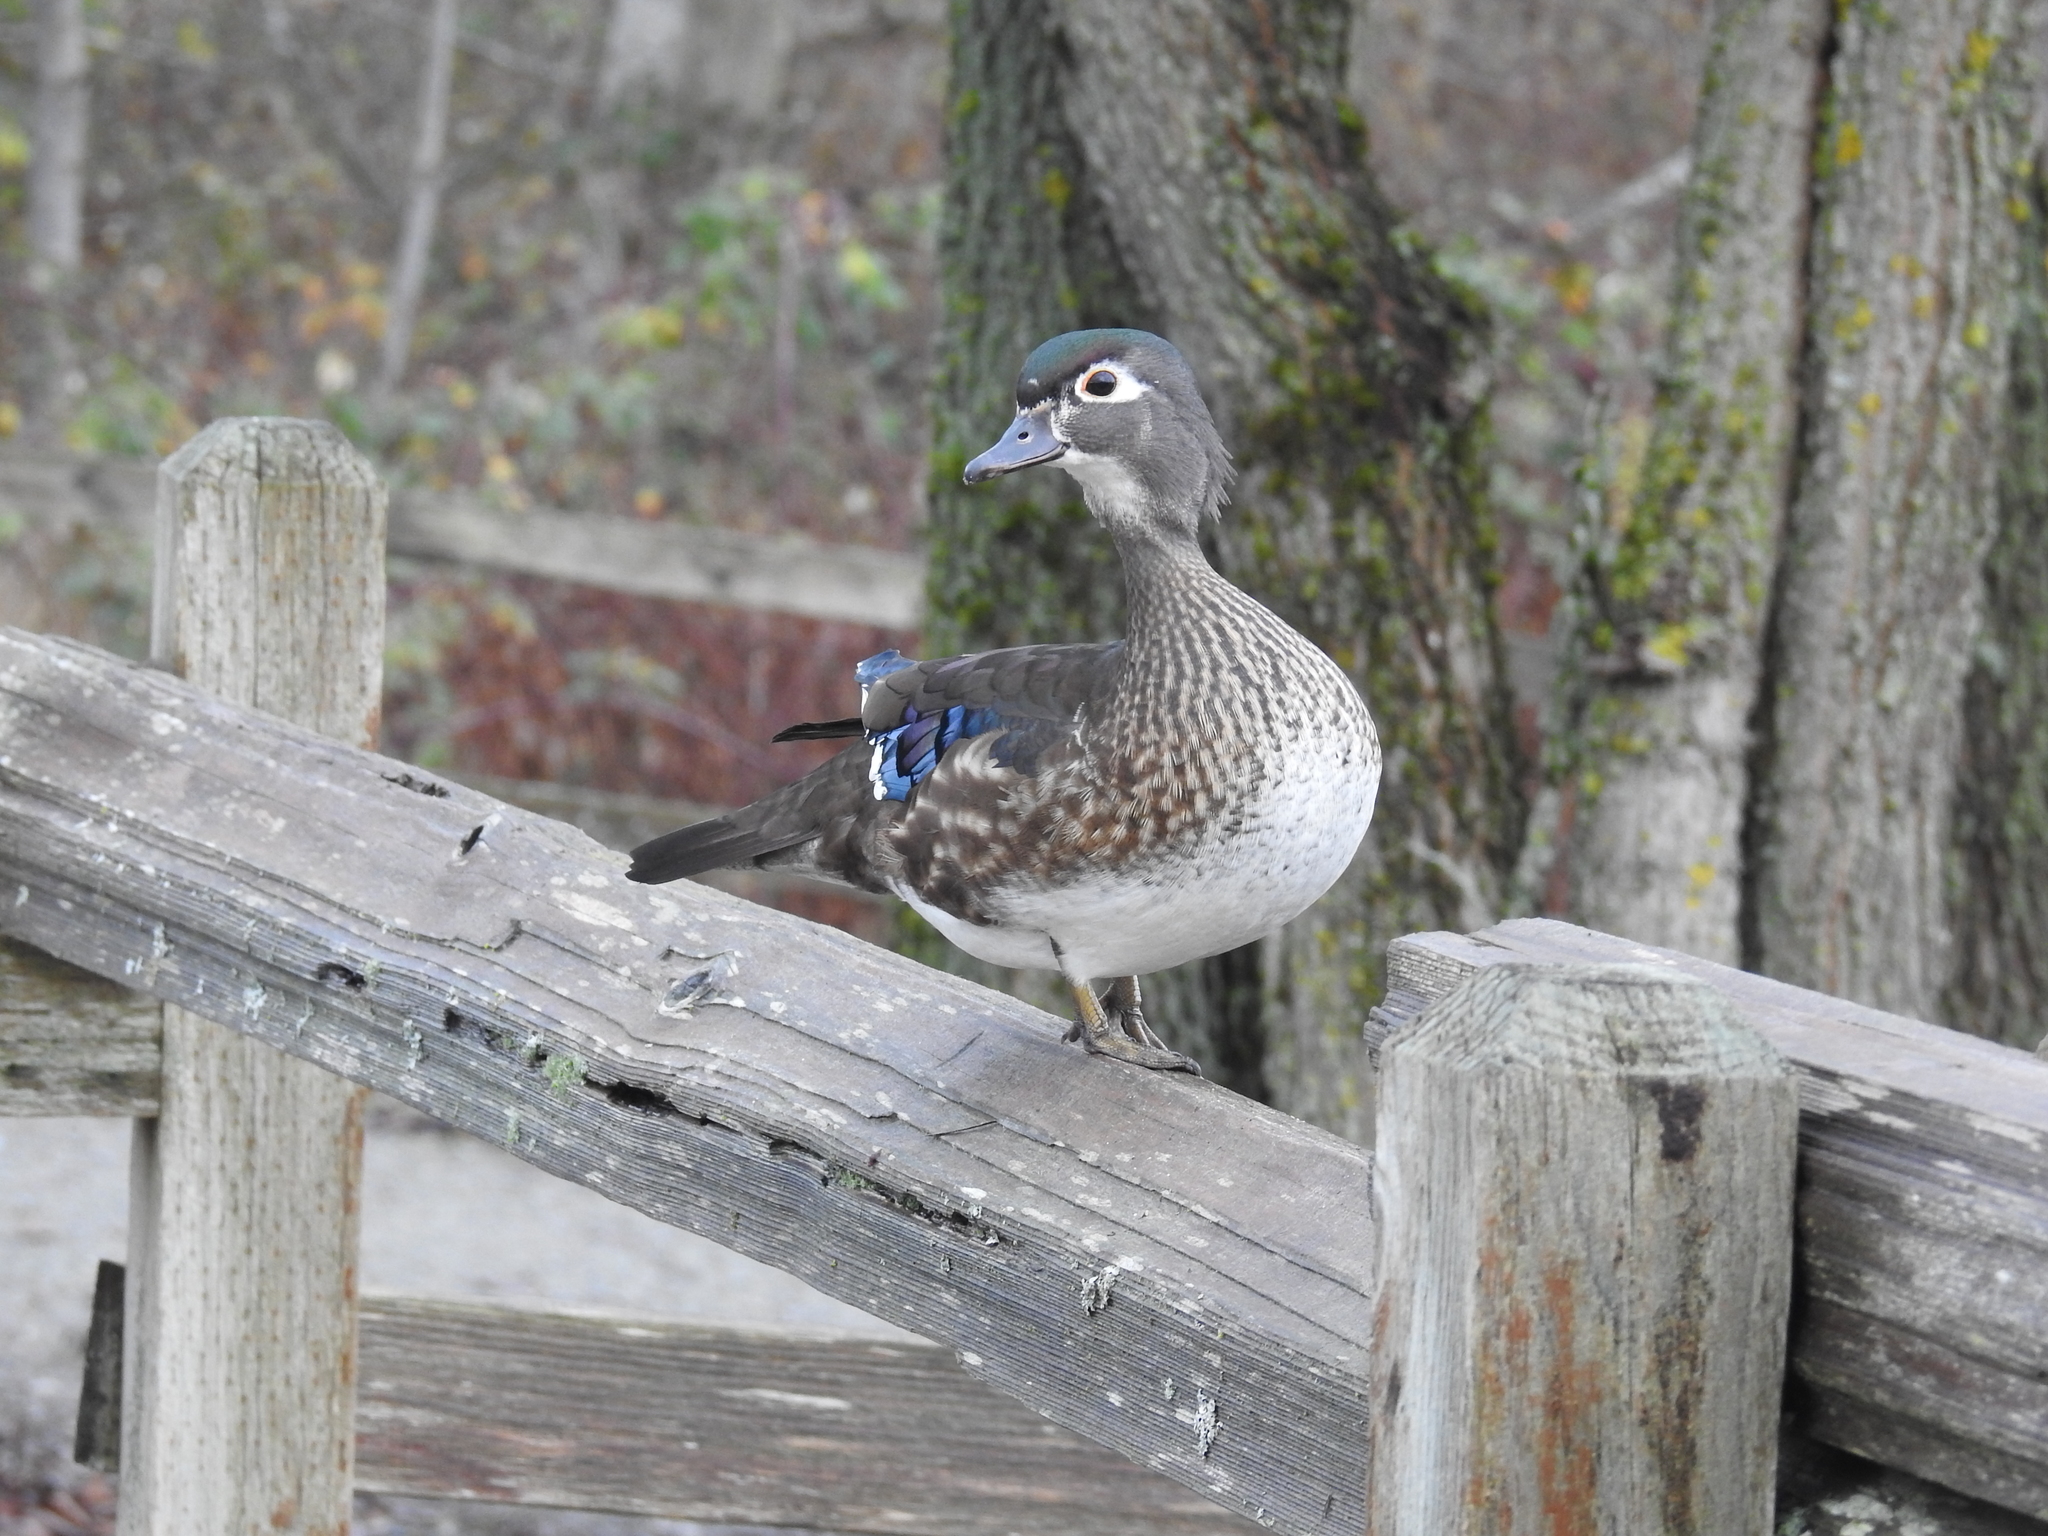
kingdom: Animalia
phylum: Chordata
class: Aves
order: Anseriformes
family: Anatidae
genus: Aix
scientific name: Aix sponsa
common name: Wood duck
